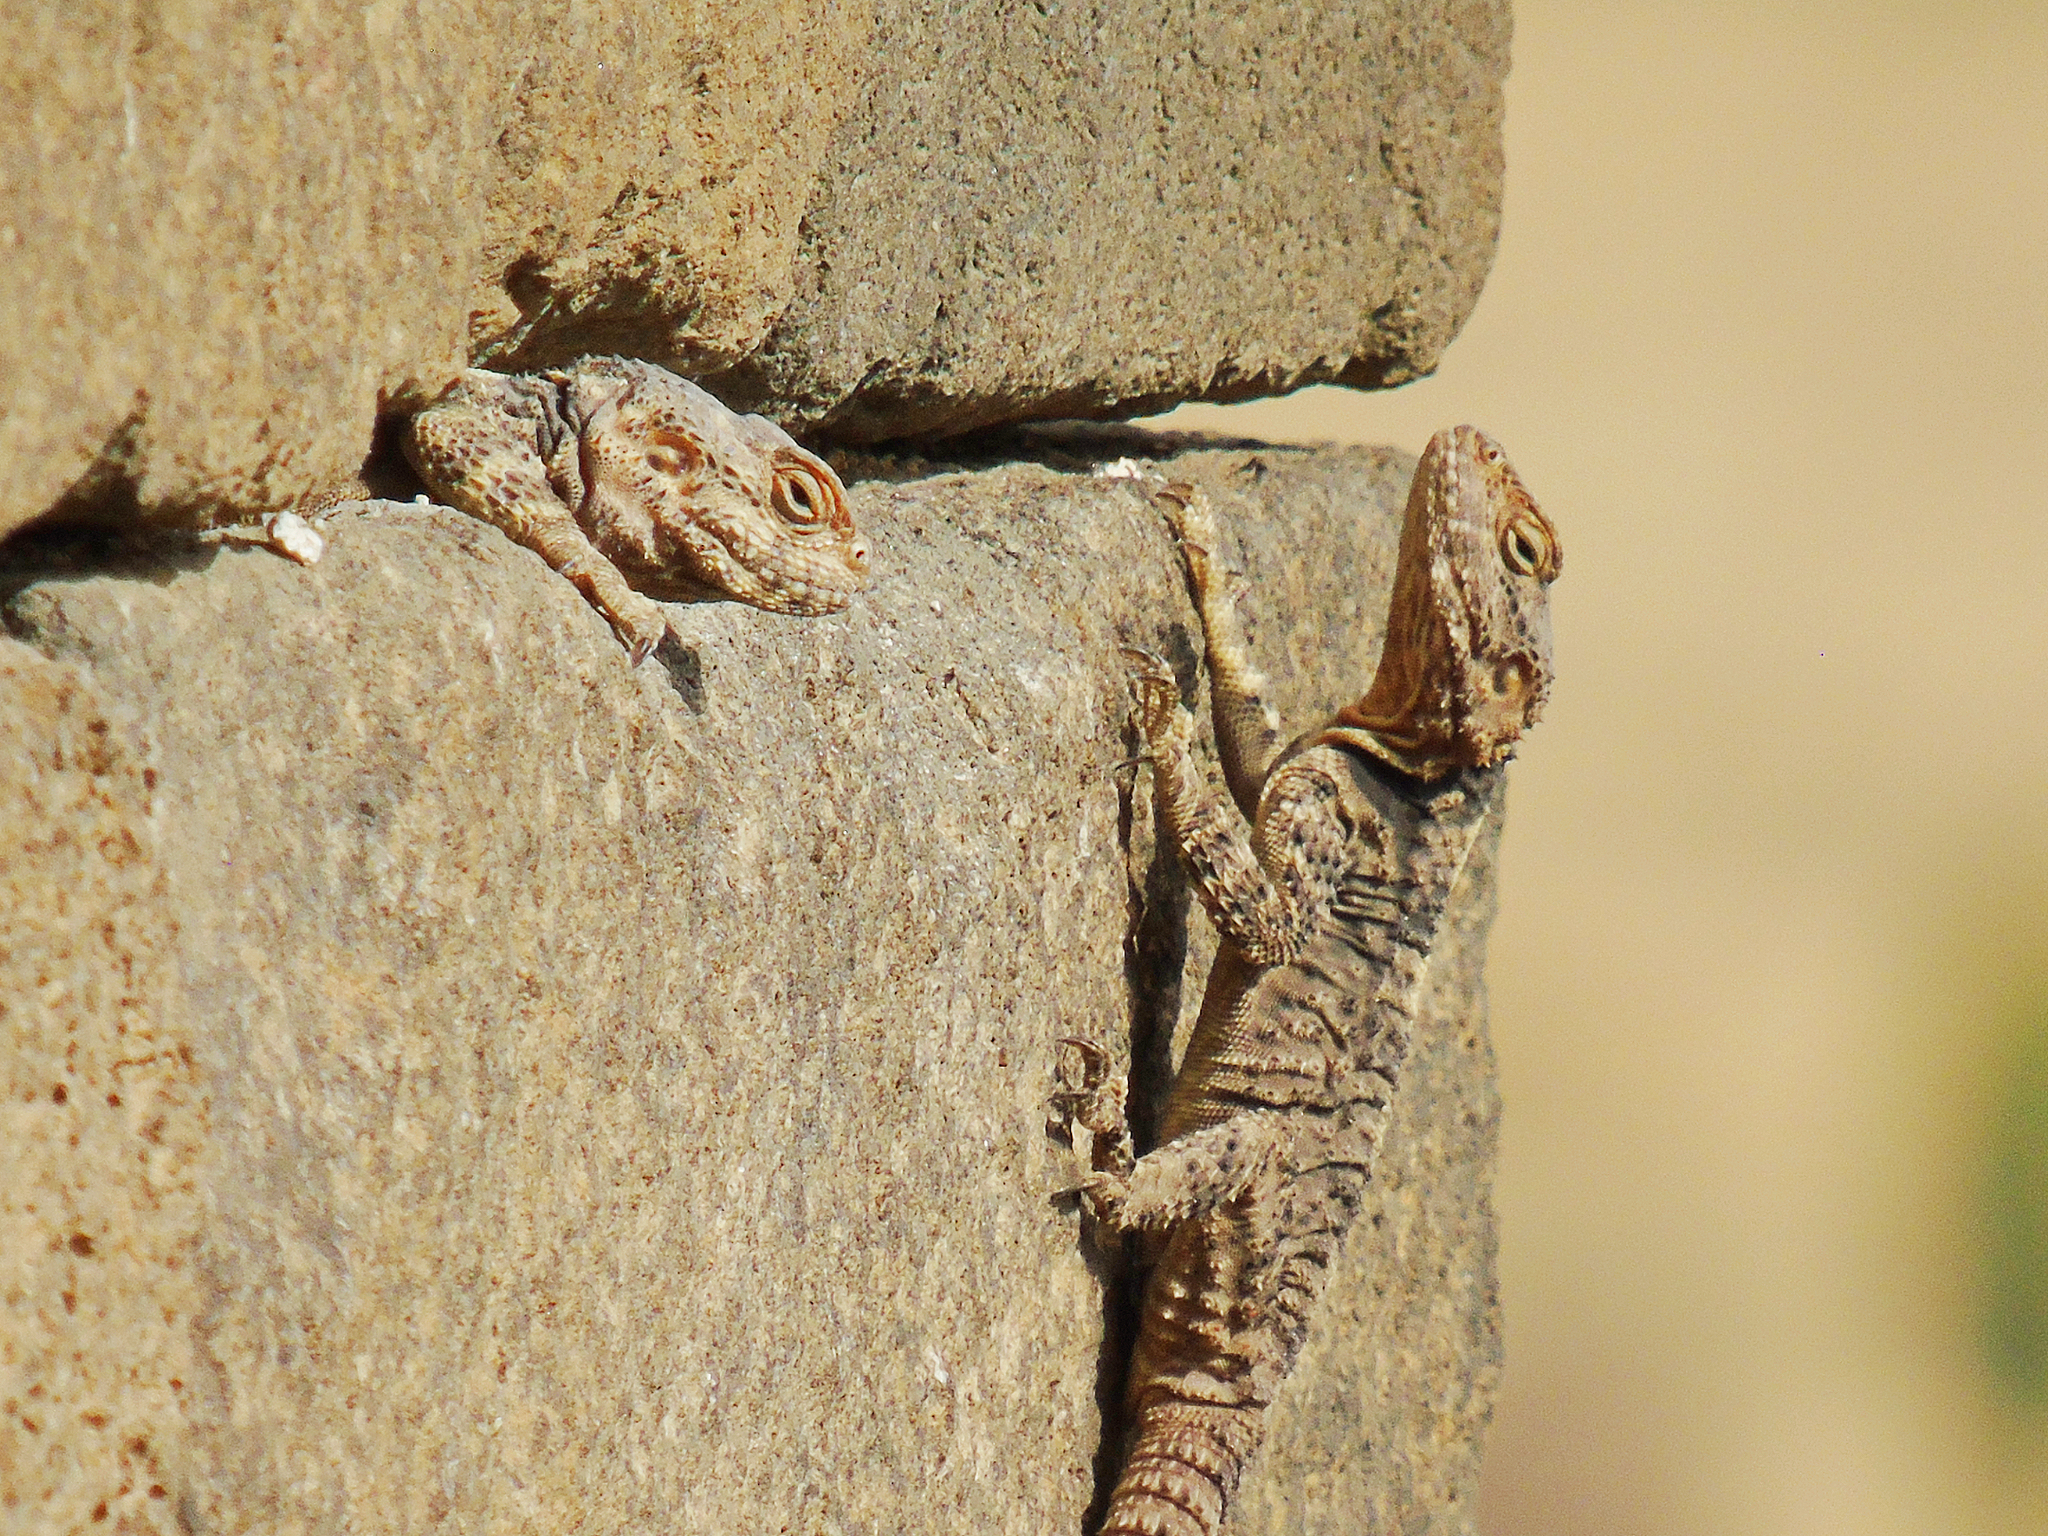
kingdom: Animalia
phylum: Chordata
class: Squamata
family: Agamidae
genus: Stellagama
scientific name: Stellagama stellio
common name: Starred agama
